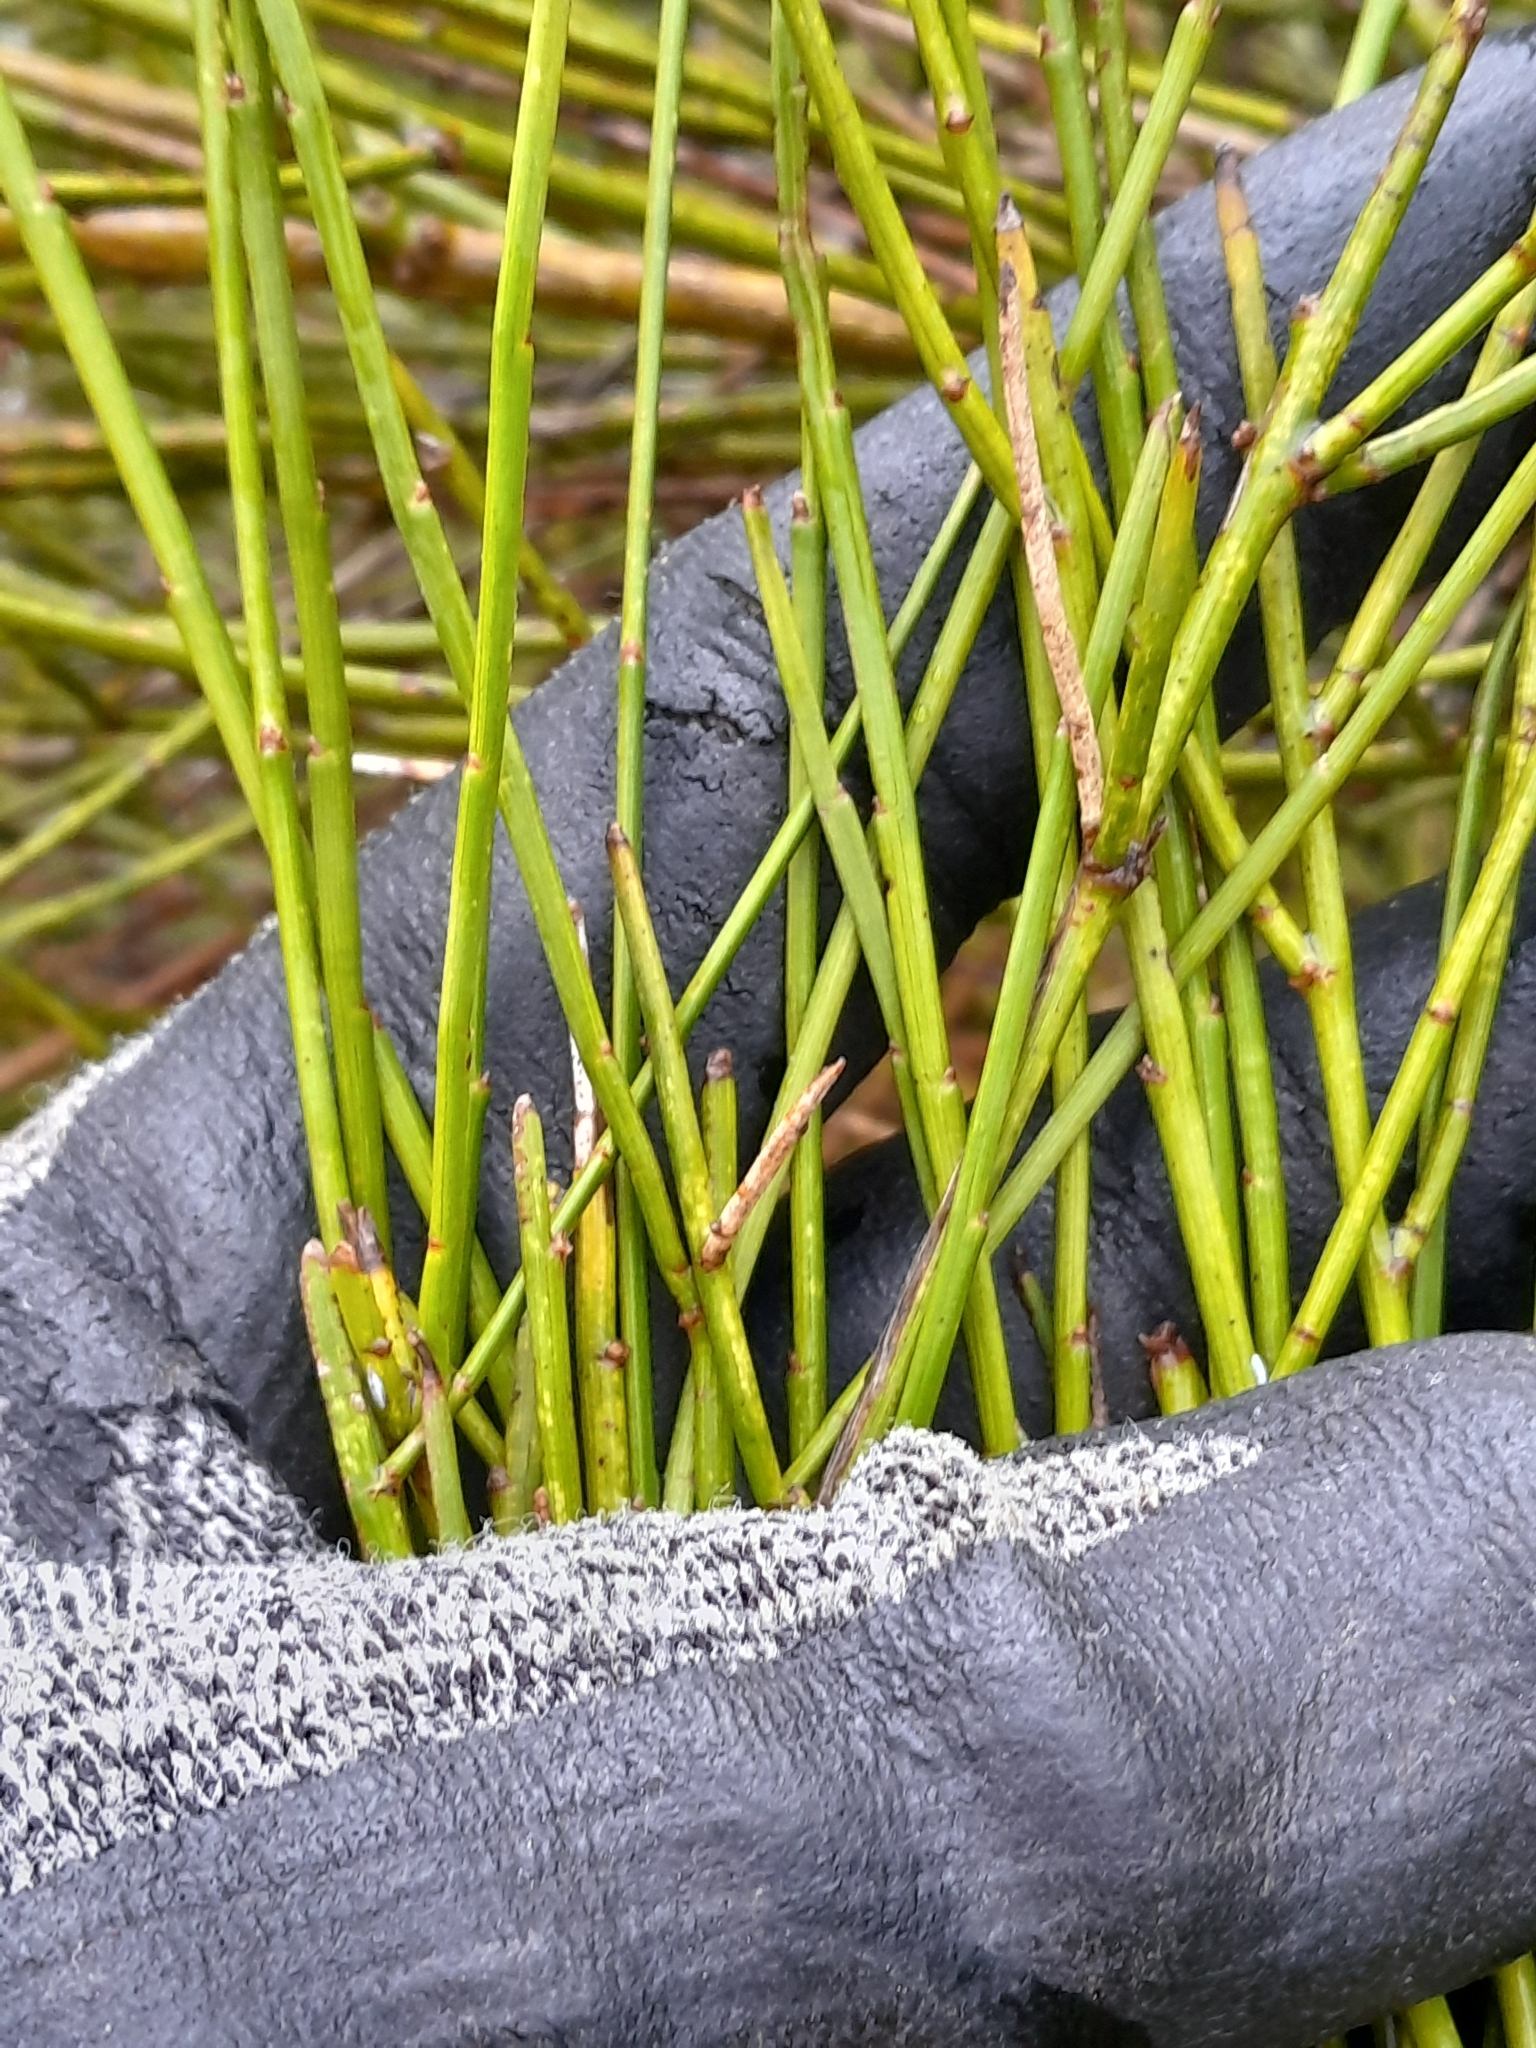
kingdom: Plantae
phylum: Tracheophyta
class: Magnoliopsida
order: Fabales
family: Fabaceae
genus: Carmichaelia
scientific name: Carmichaelia australis
